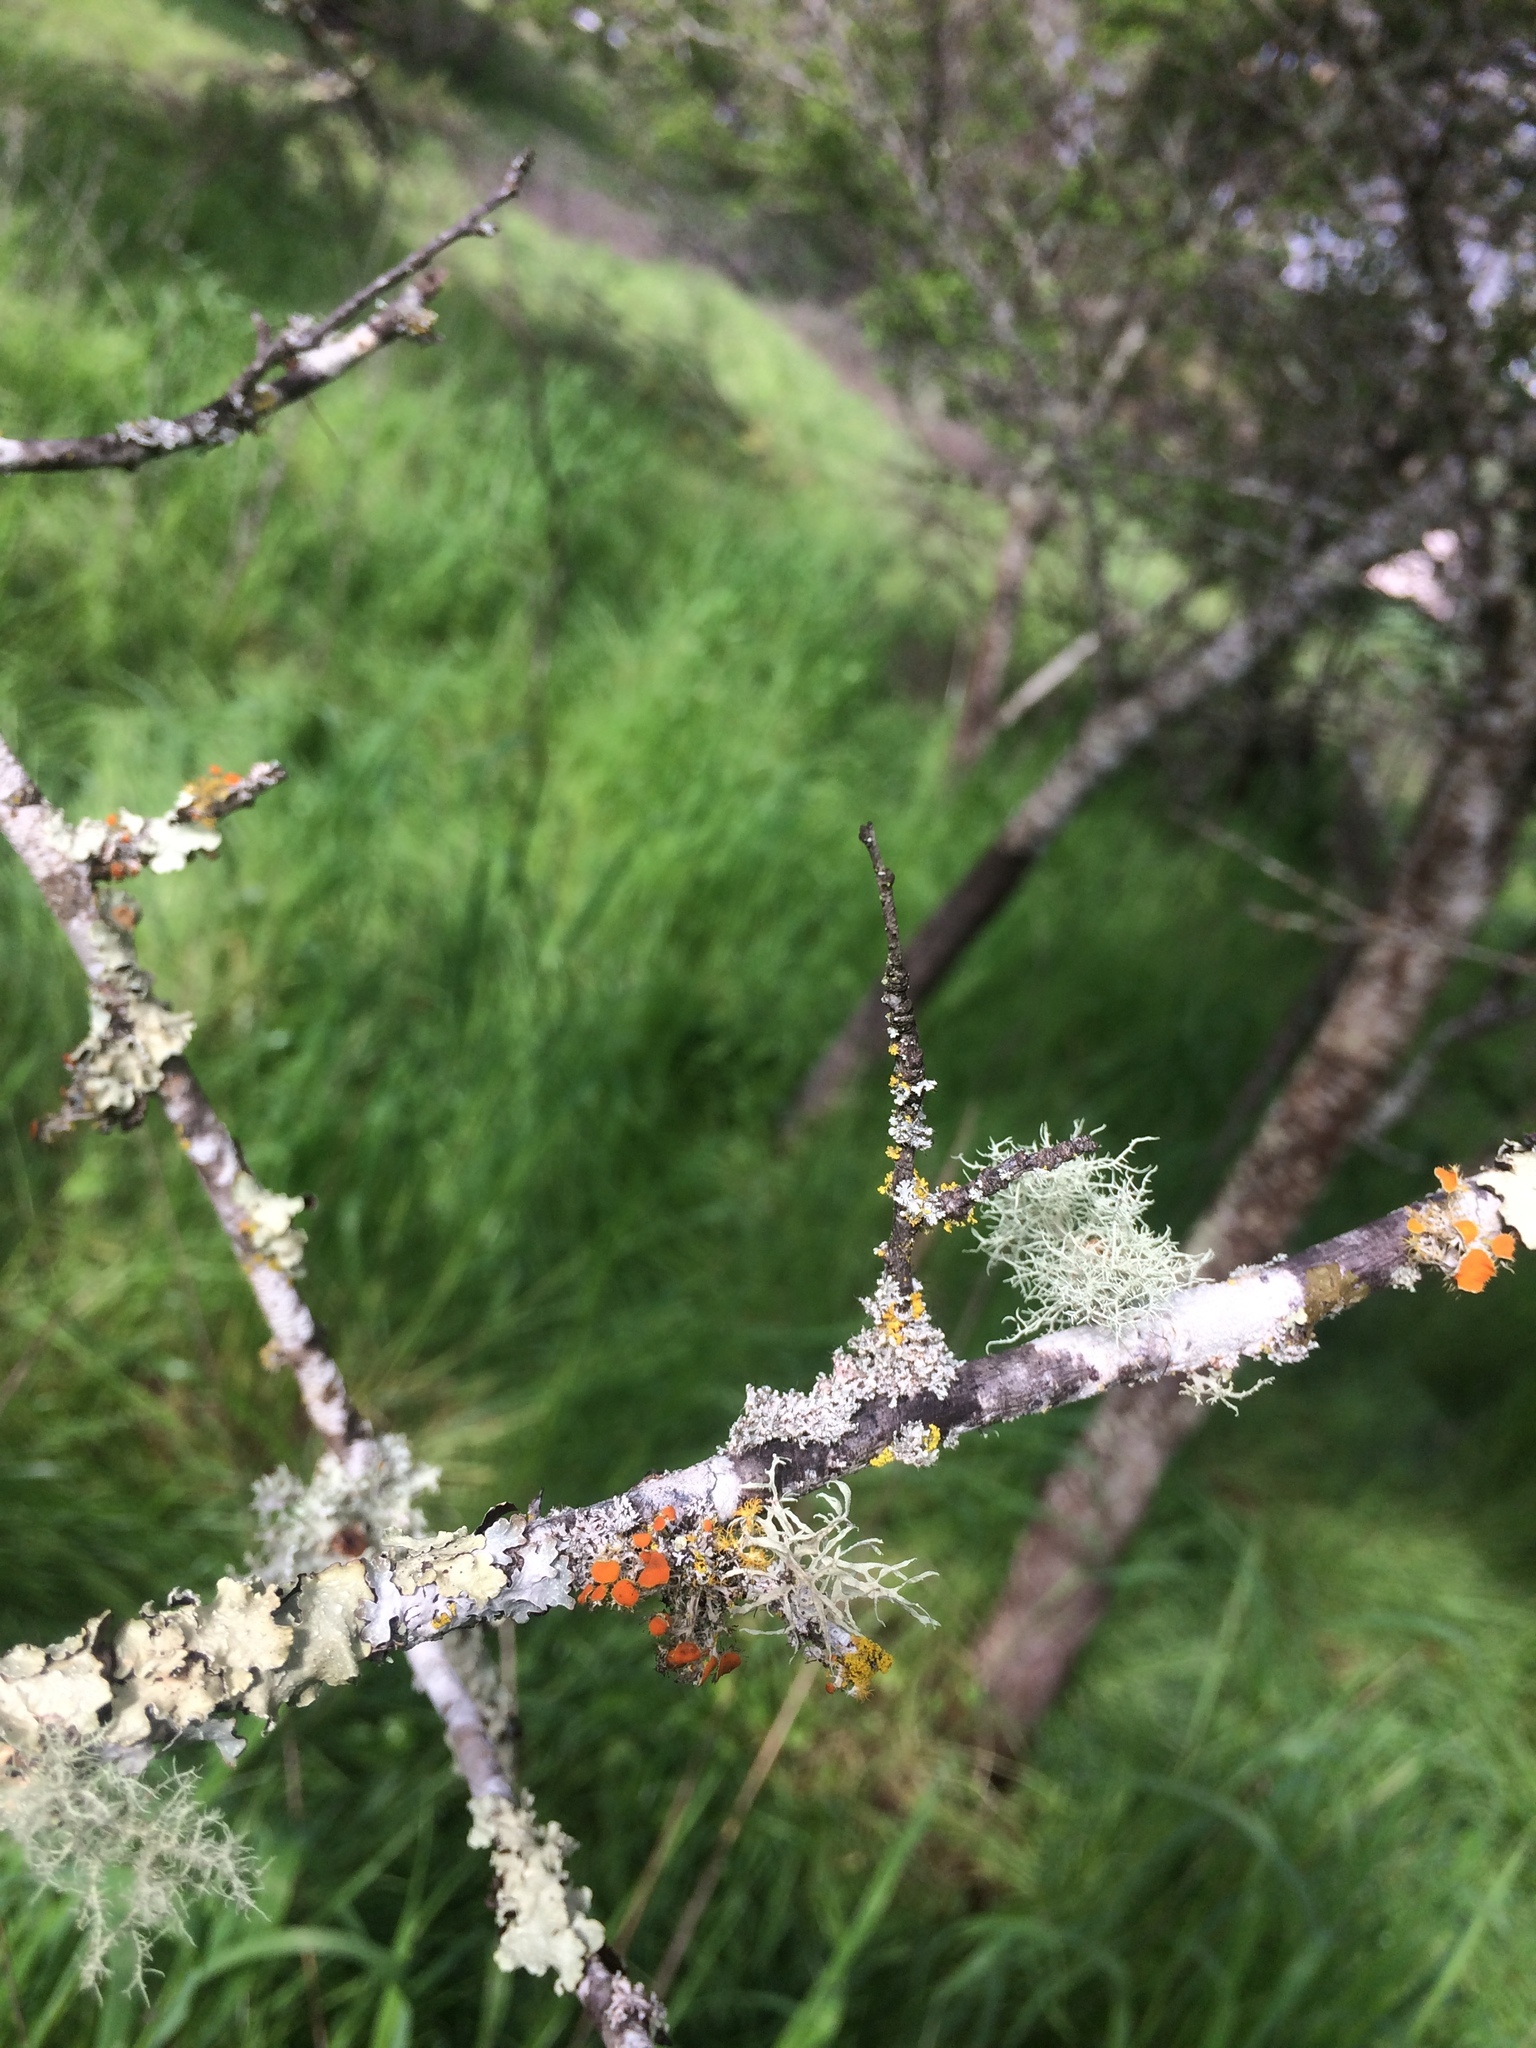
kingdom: Fungi
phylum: Ascomycota
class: Lecanoromycetes
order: Teloschistales
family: Teloschistaceae
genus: Niorma
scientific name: Niorma chrysophthalma
